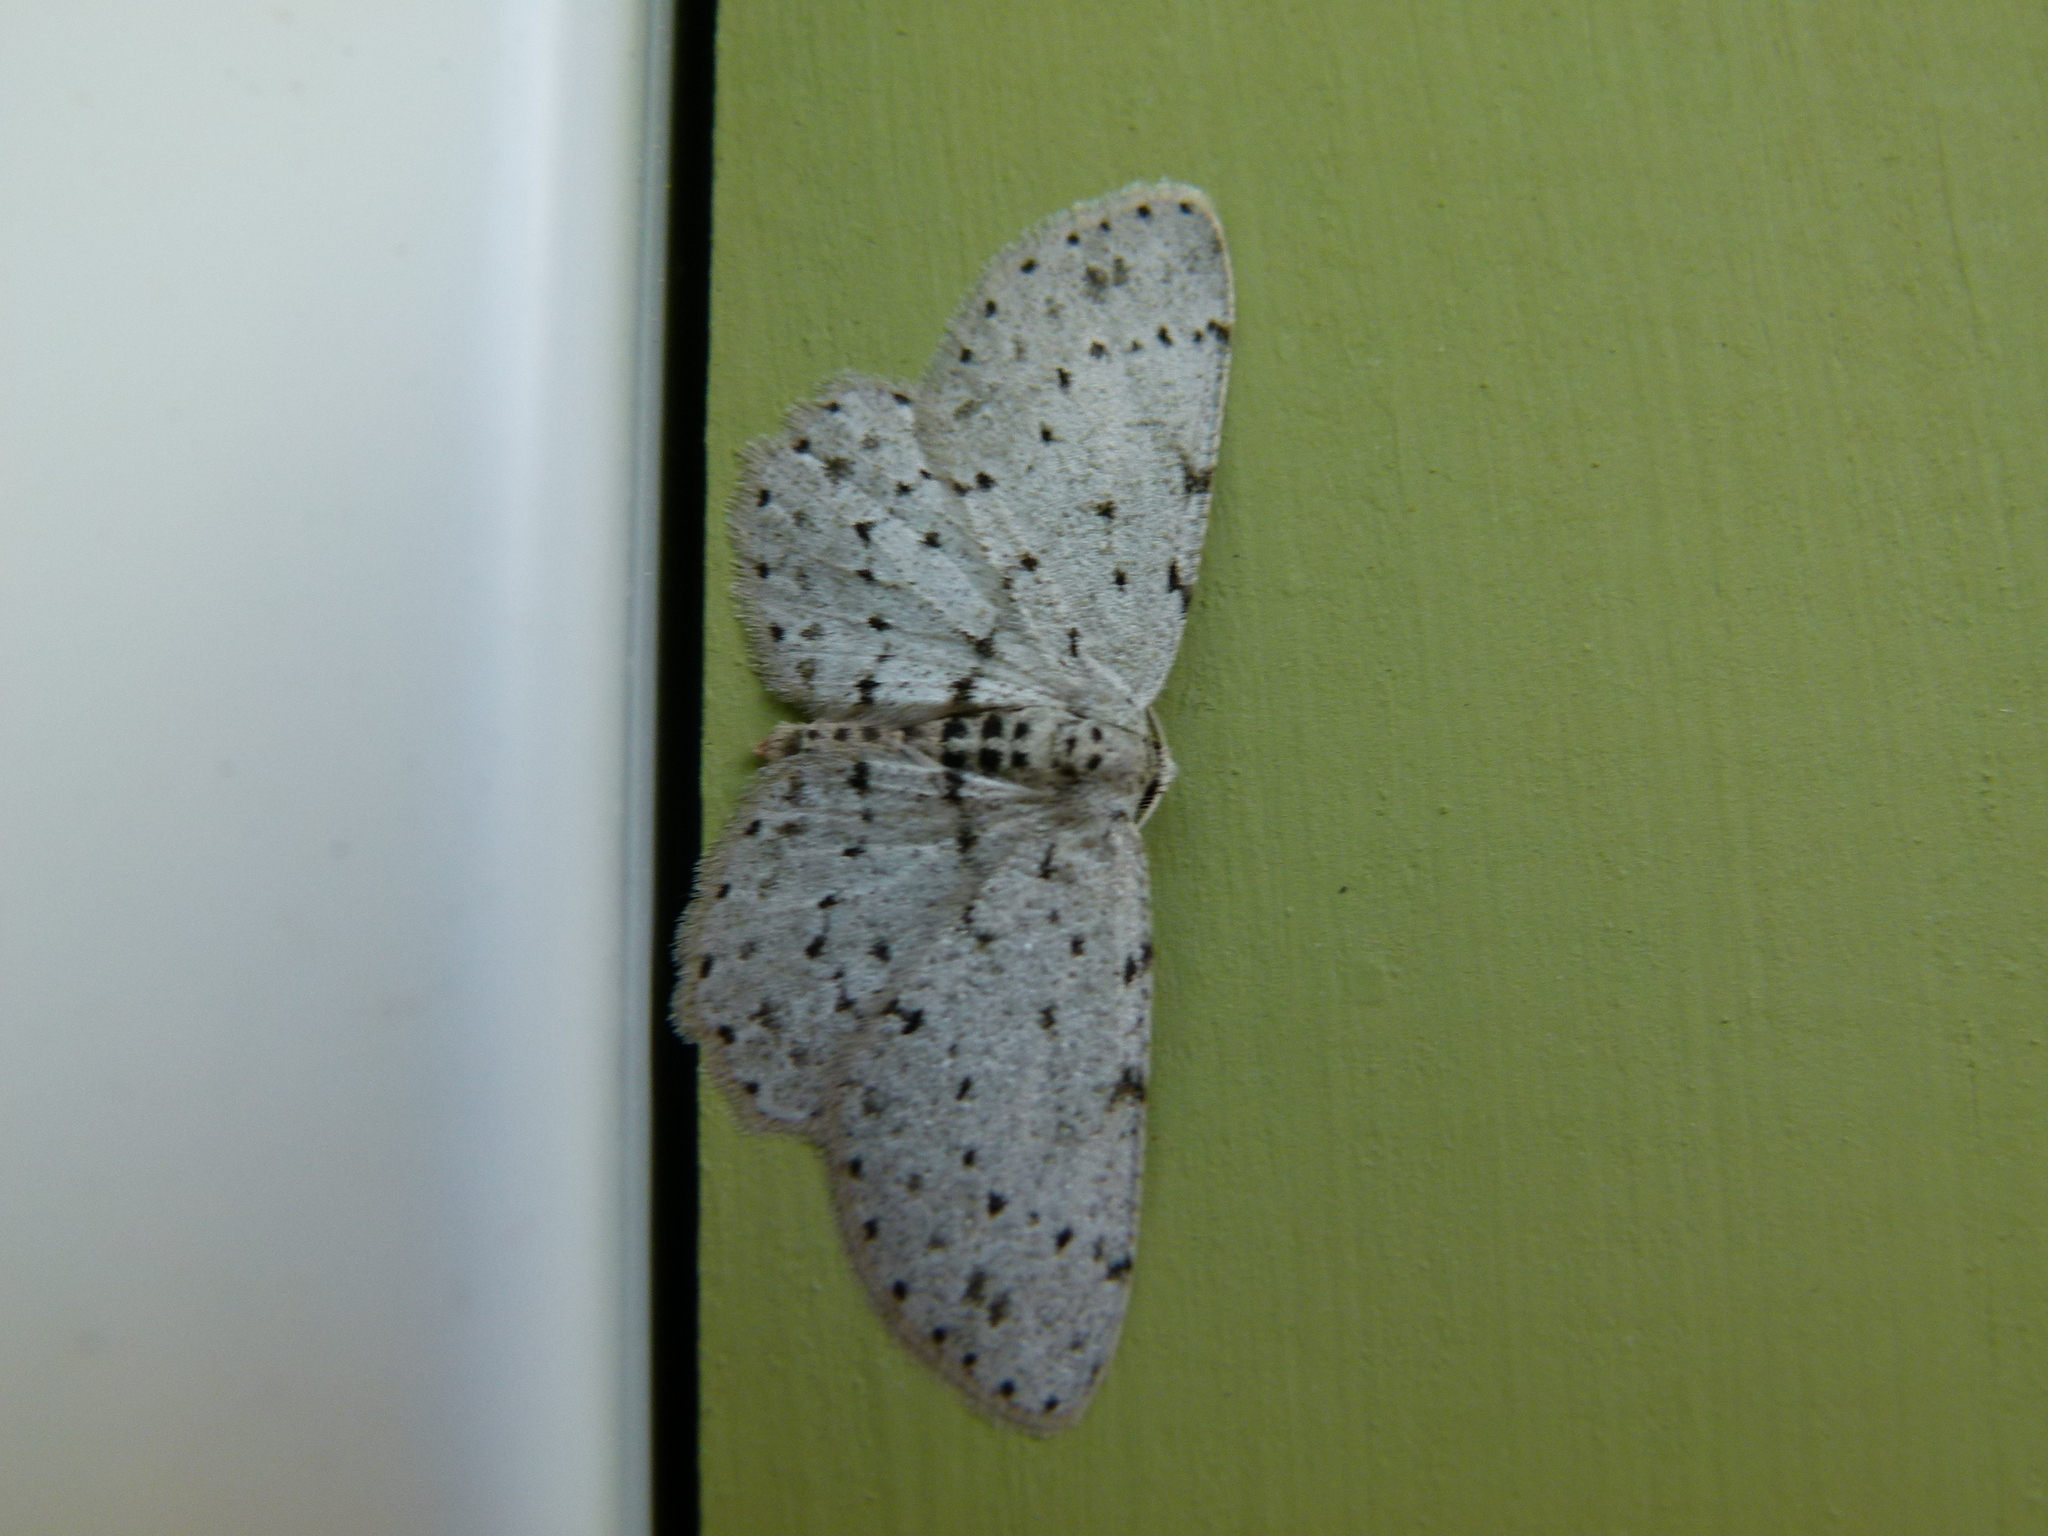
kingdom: Animalia
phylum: Arthropoda
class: Insecta
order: Lepidoptera
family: Geometridae
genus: Glena
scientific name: Glena cribrataria
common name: Dotted gray
